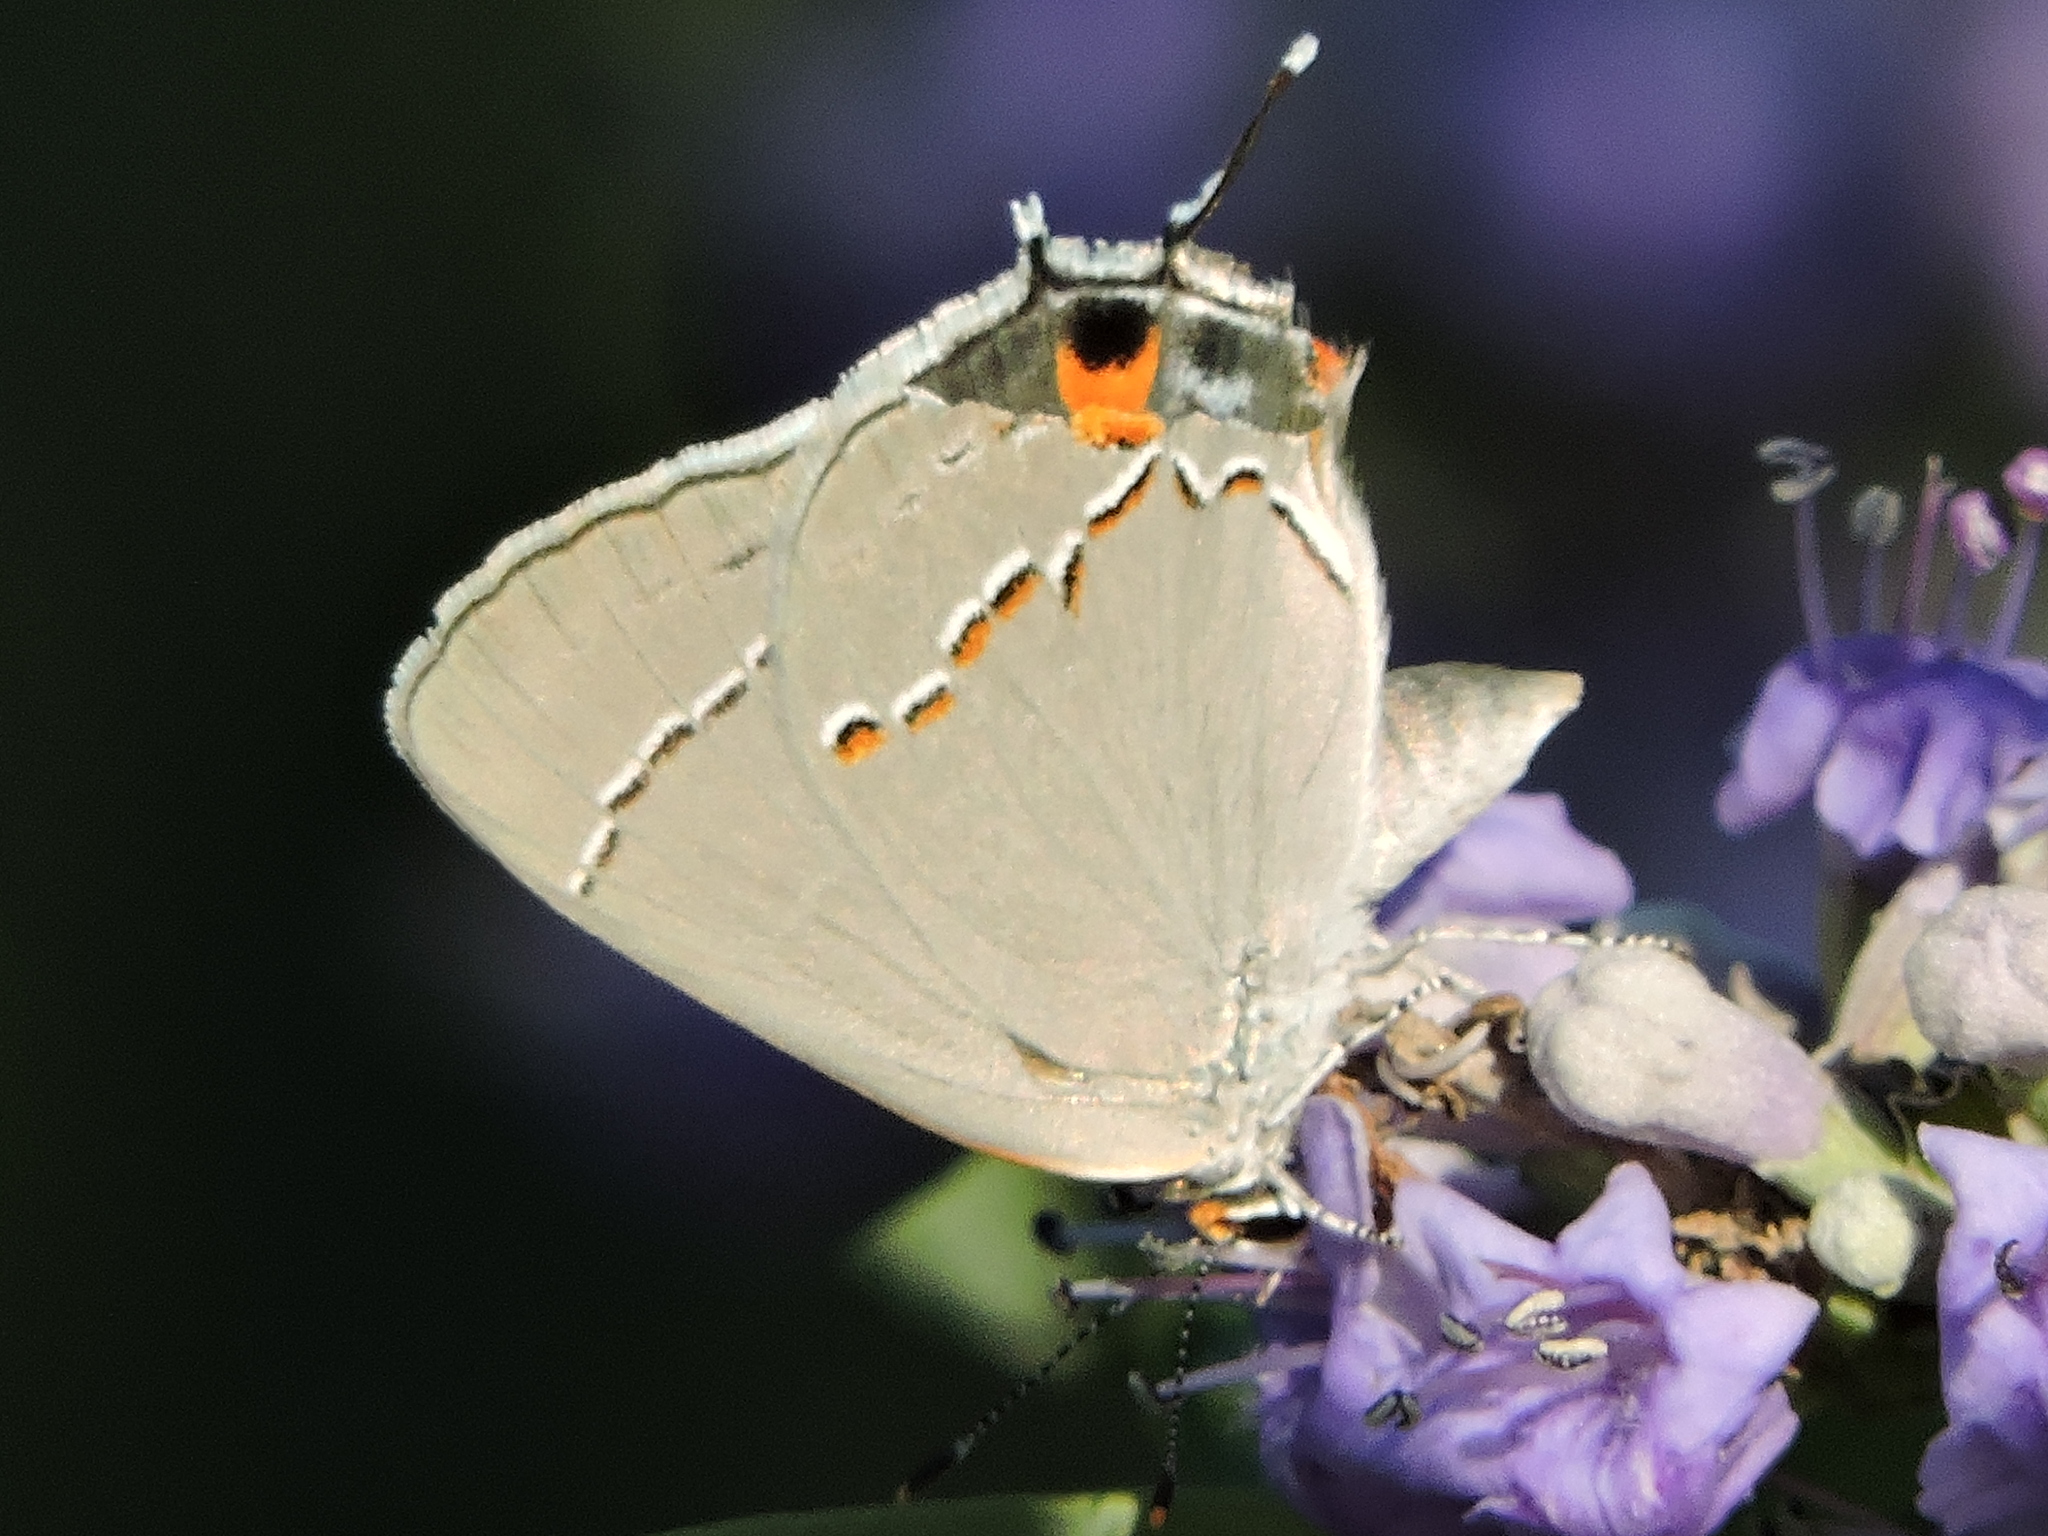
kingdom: Animalia
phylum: Arthropoda
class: Insecta
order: Lepidoptera
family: Lycaenidae
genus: Strymon
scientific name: Strymon melinus
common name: Gray hairstreak
